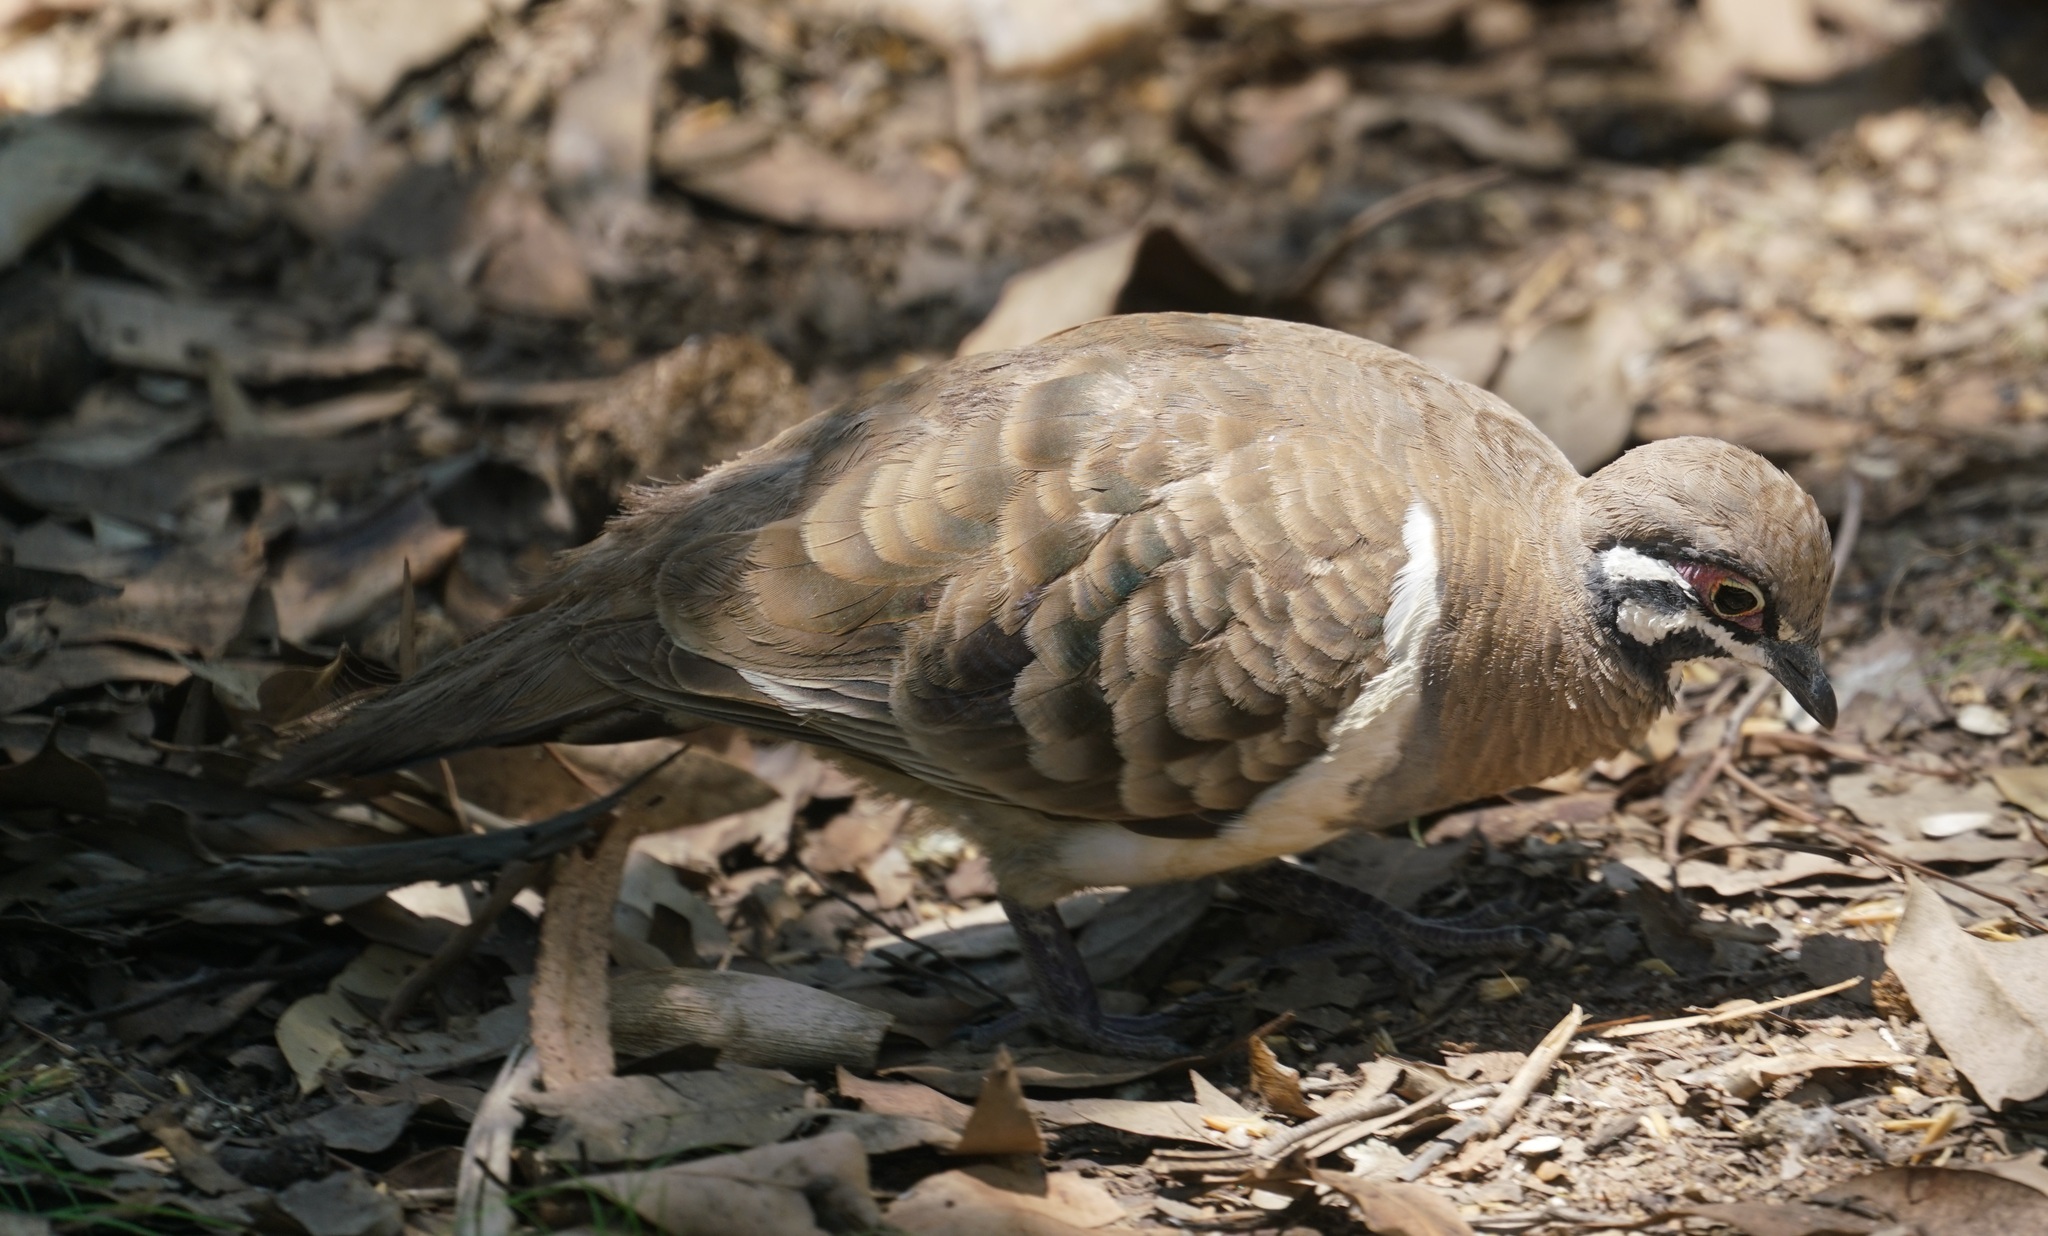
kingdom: Animalia
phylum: Chordata
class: Aves
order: Columbiformes
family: Columbidae
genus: Geophaps
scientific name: Geophaps scripta
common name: Squatter pigeon
